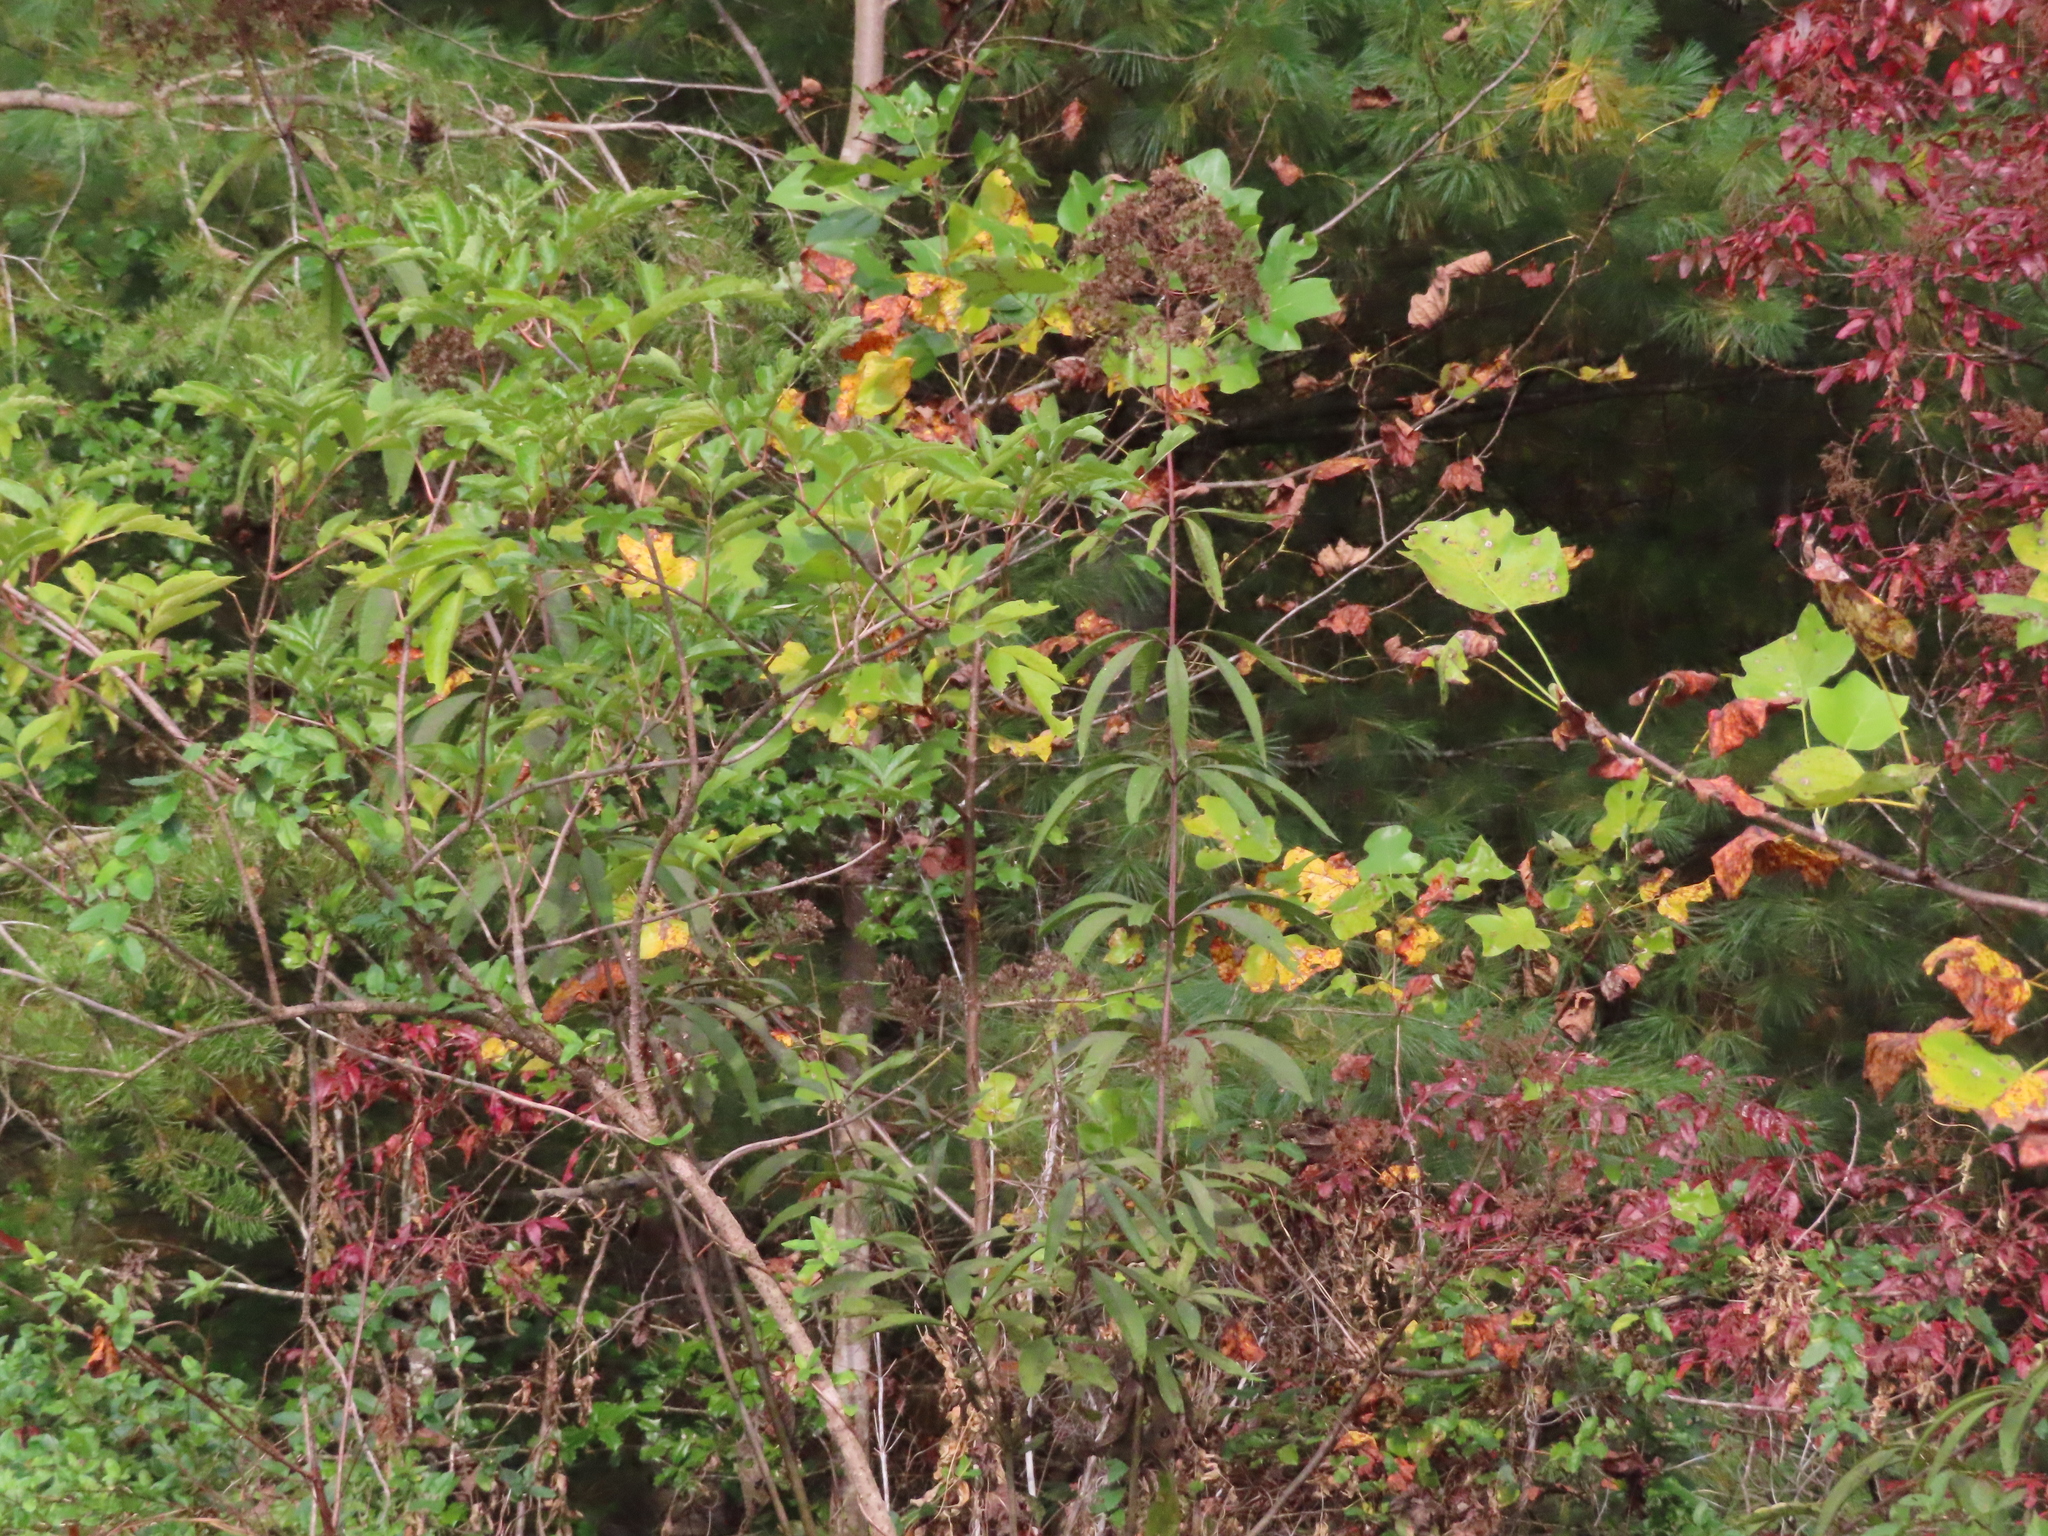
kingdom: Plantae
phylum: Tracheophyta
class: Magnoliopsida
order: Asterales
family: Asteraceae
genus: Eutrochium
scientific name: Eutrochium fistulosum
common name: Trumpetweed
